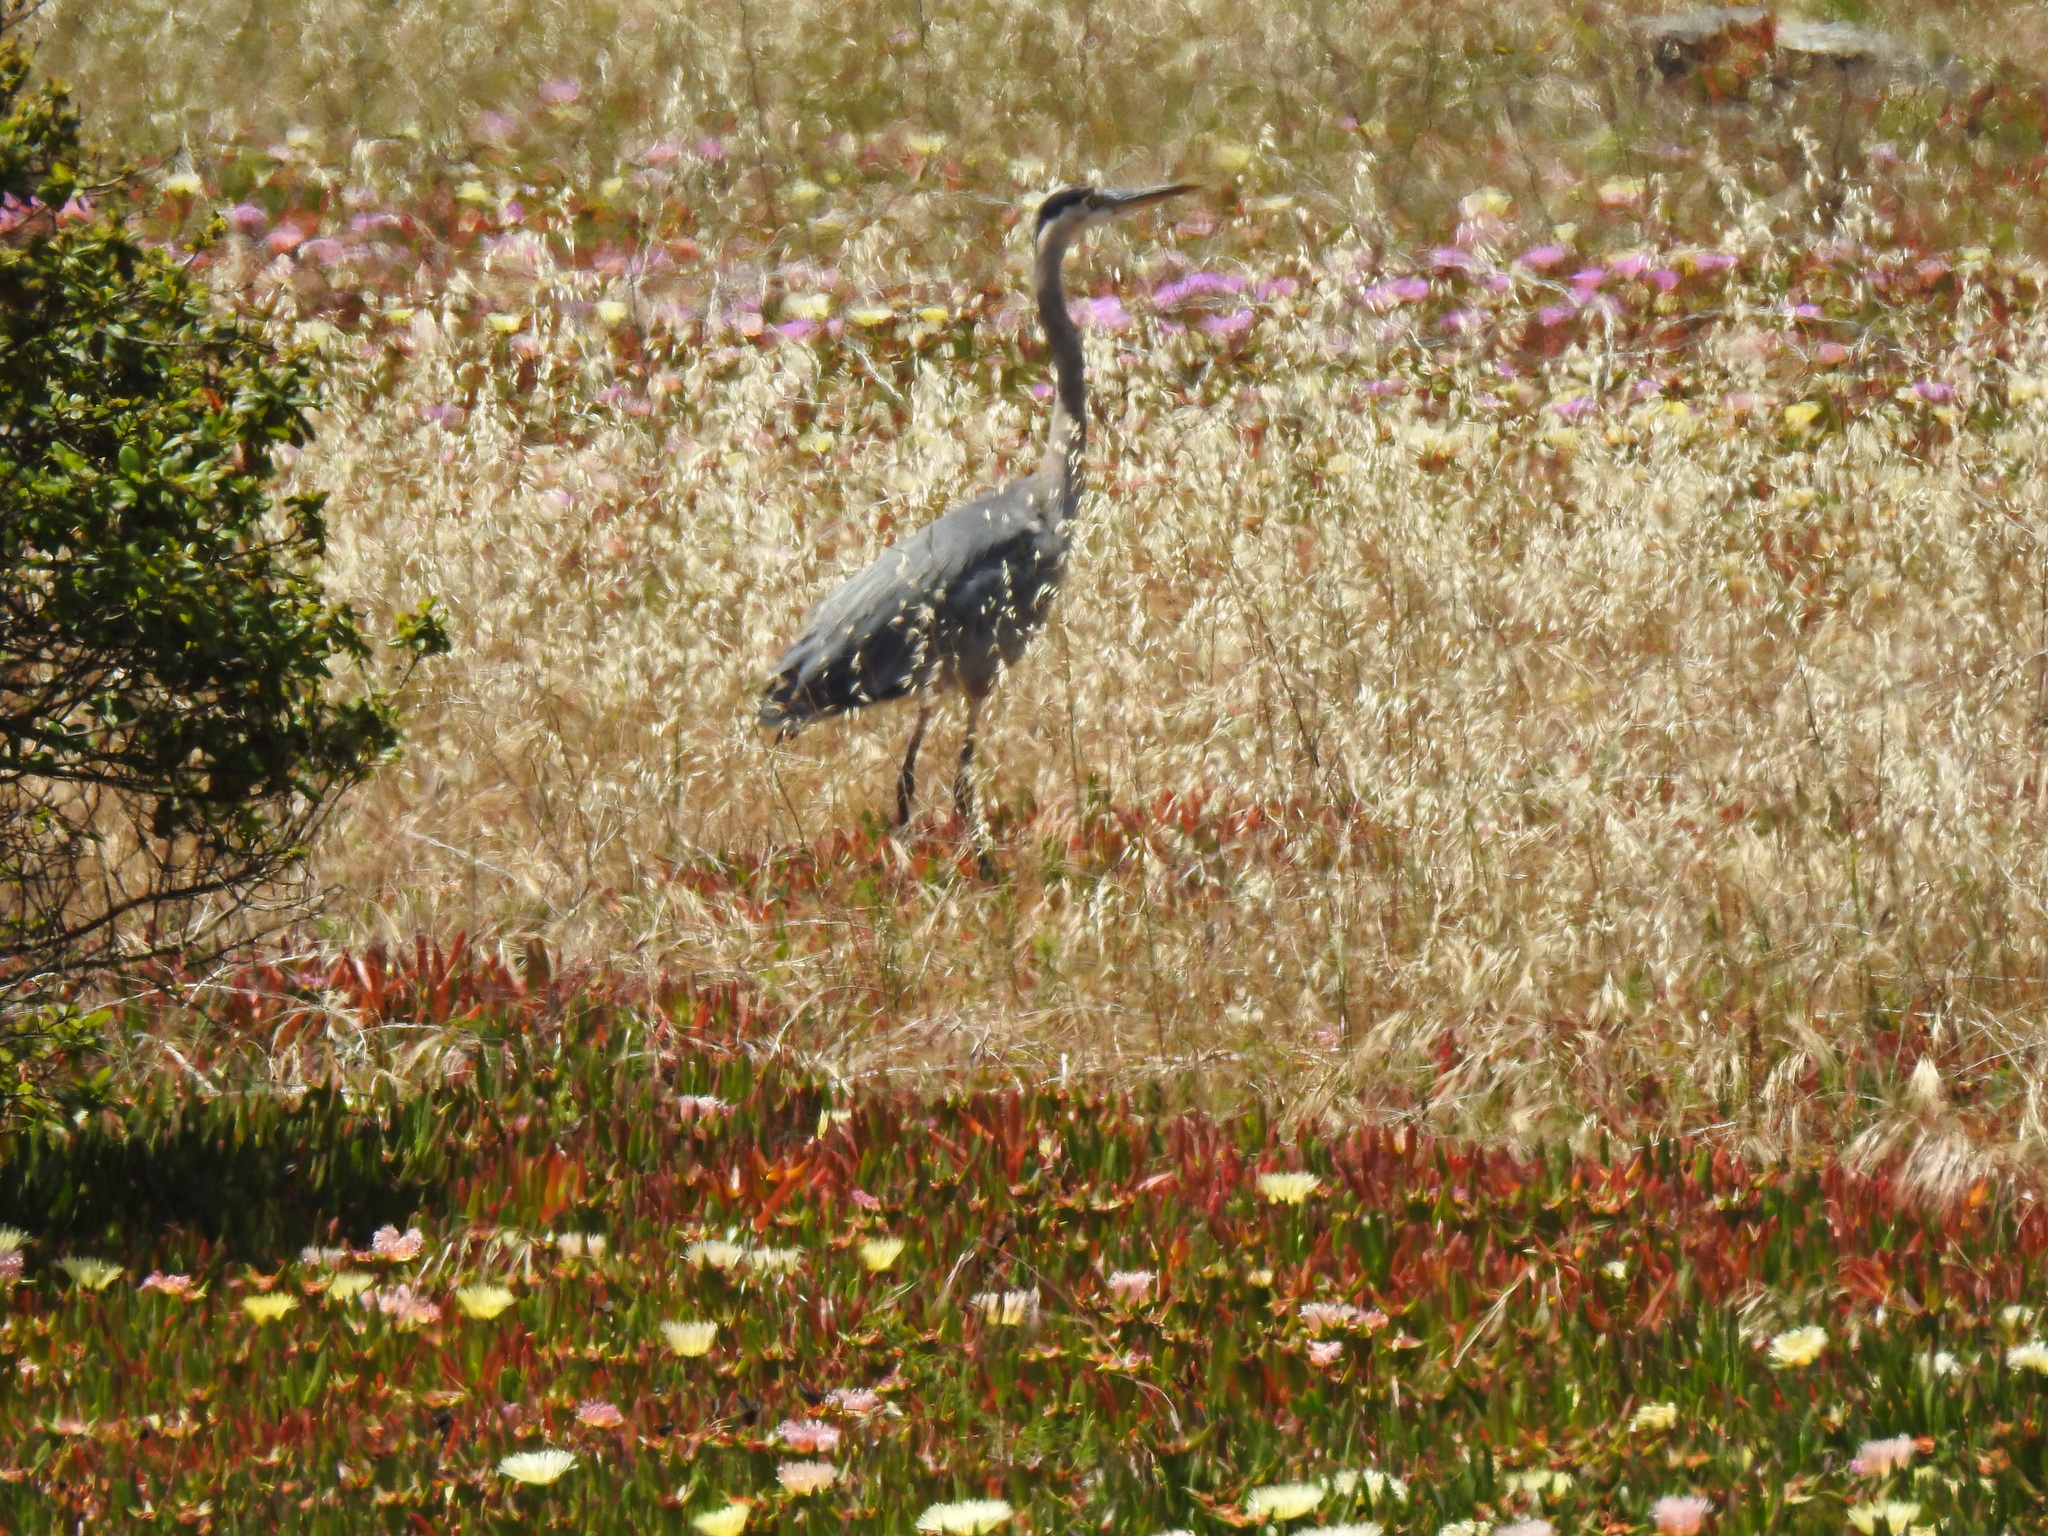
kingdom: Animalia
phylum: Chordata
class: Aves
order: Pelecaniformes
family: Ardeidae
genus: Ardea
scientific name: Ardea herodias
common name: Great blue heron
